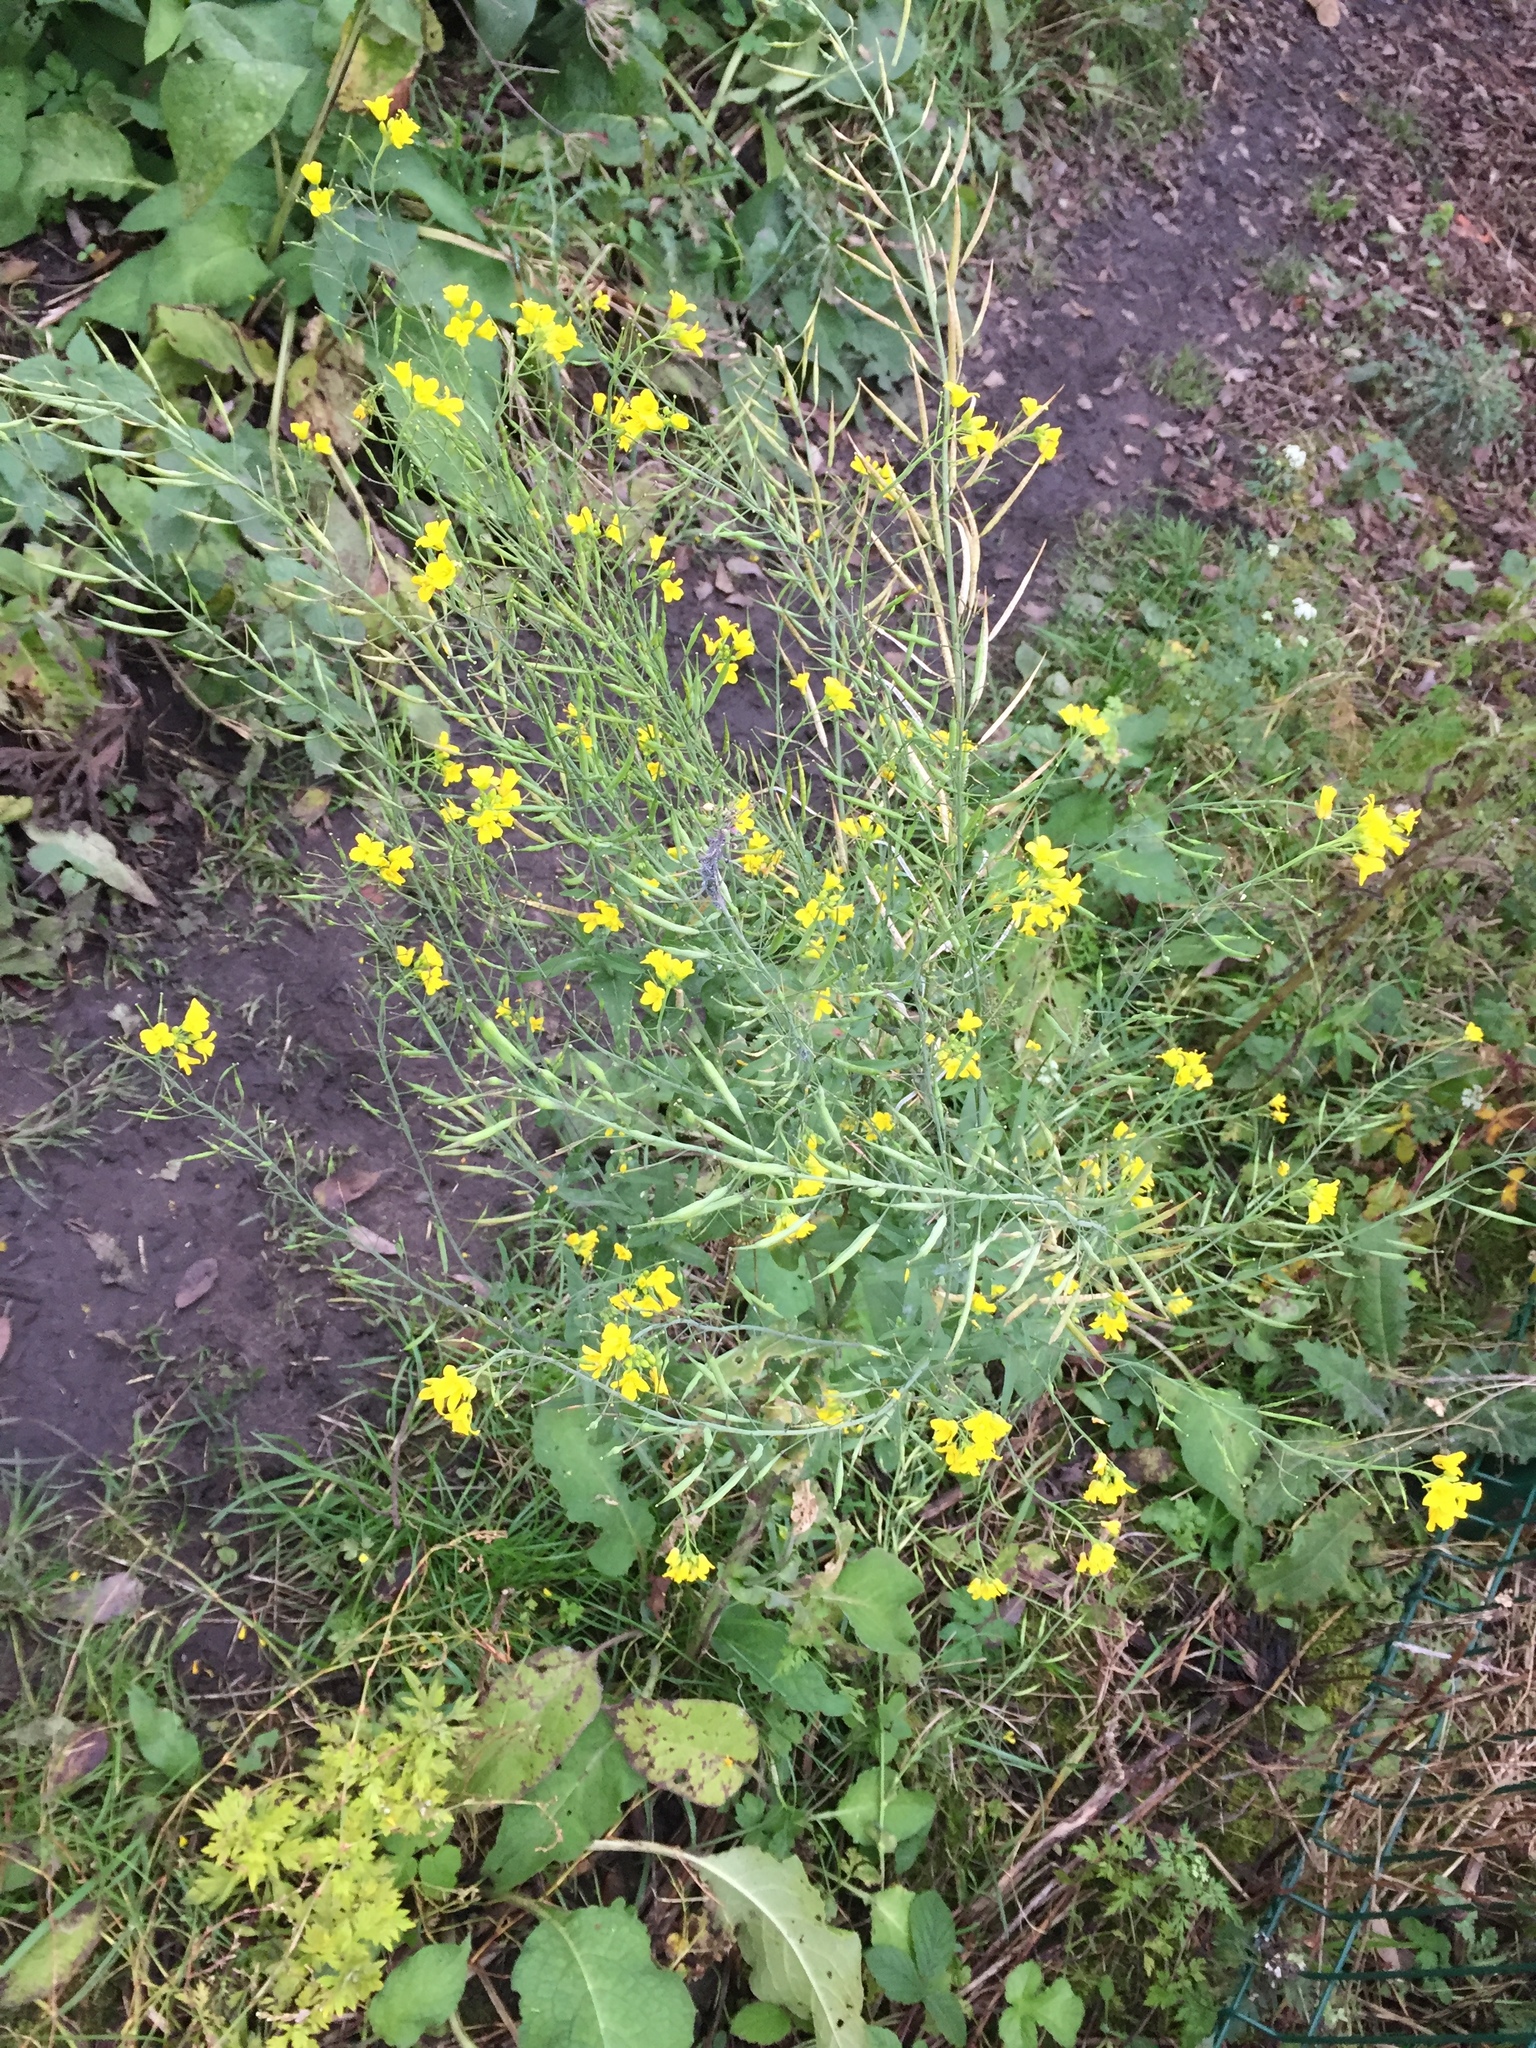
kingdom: Plantae
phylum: Tracheophyta
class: Magnoliopsida
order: Brassicales
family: Brassicaceae
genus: Brassica
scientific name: Brassica rapa
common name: Field mustard
